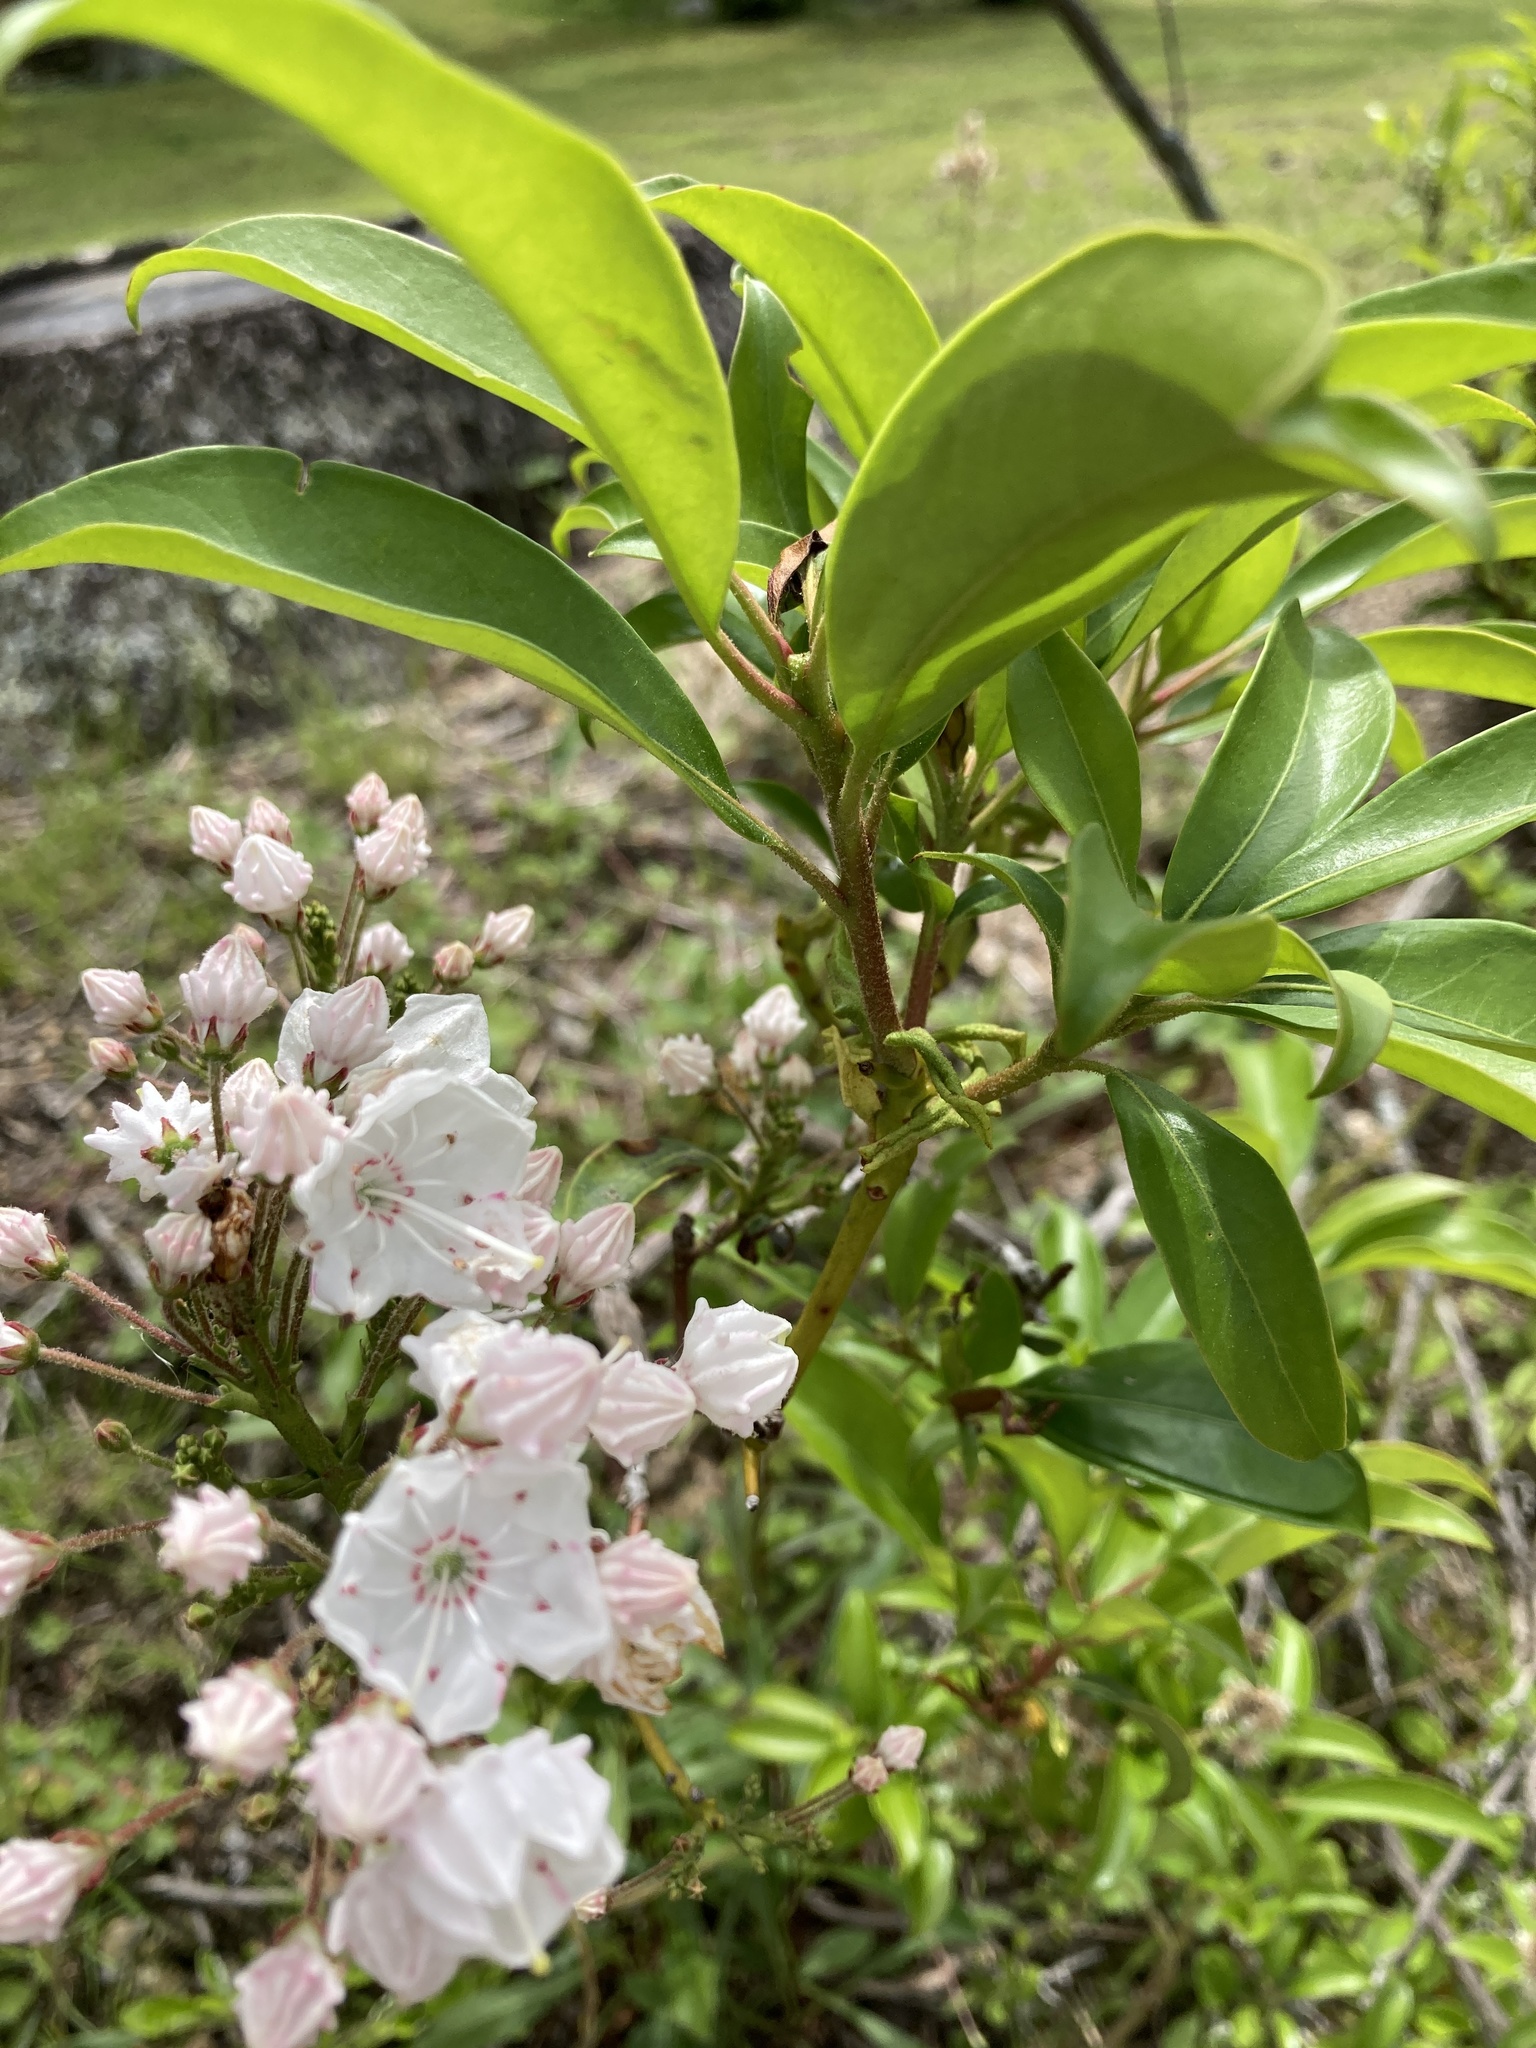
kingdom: Plantae
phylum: Tracheophyta
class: Magnoliopsida
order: Ericales
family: Ericaceae
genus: Kalmia
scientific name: Kalmia latifolia
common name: Mountain-laurel
